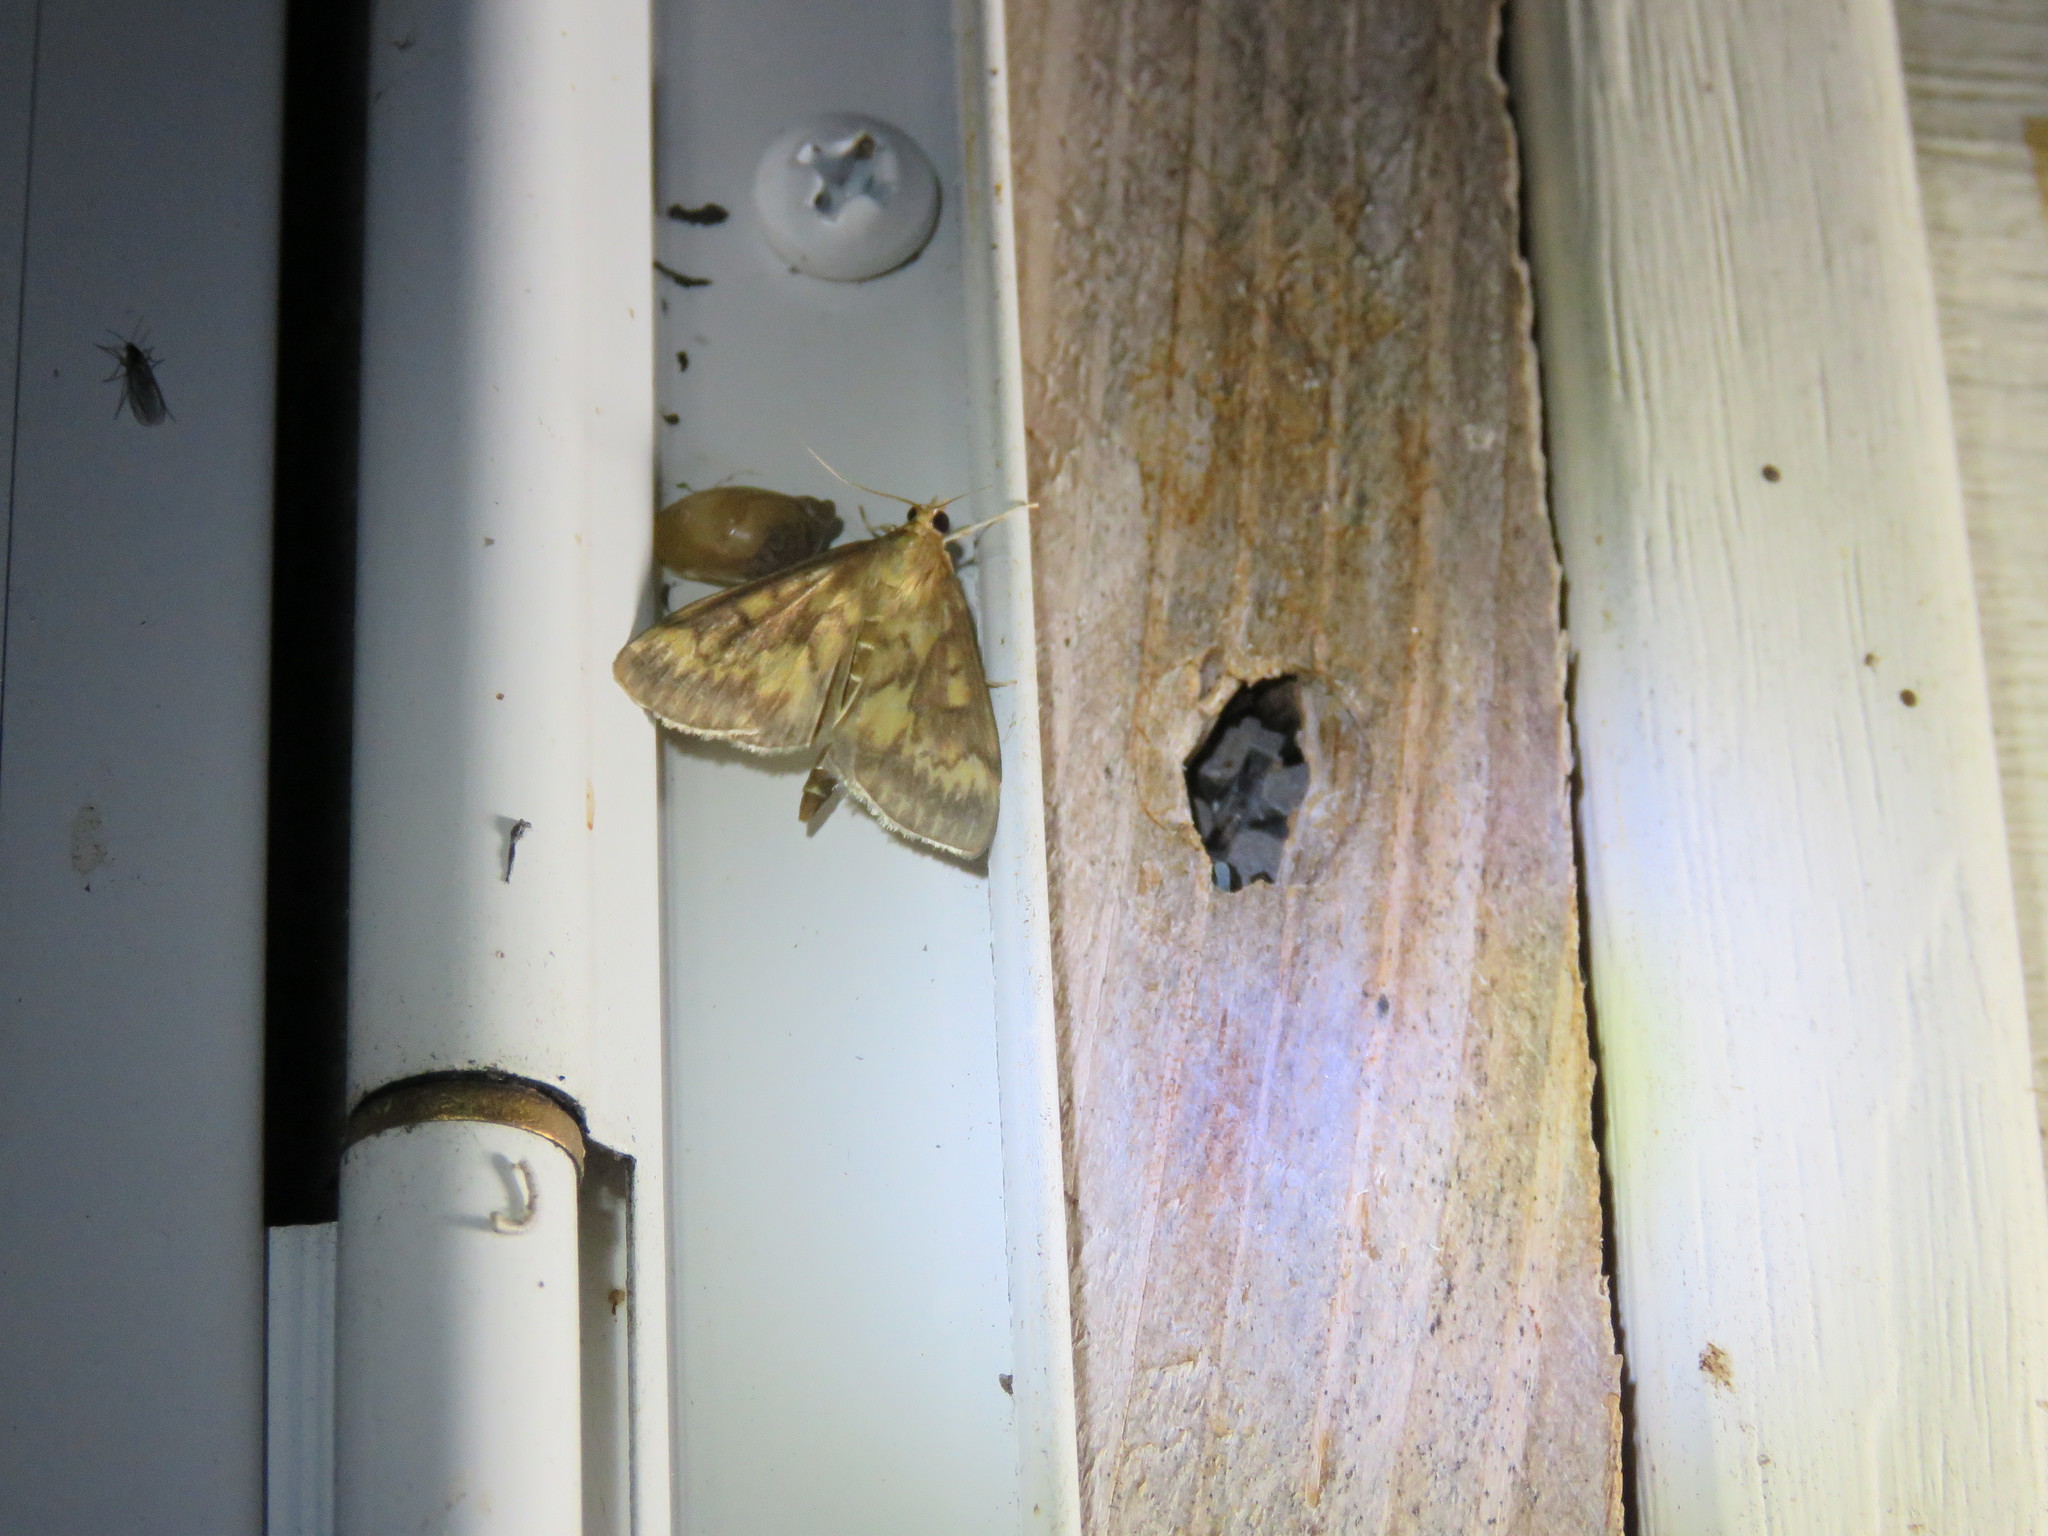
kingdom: Animalia
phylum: Arthropoda
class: Insecta
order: Lepidoptera
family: Crambidae
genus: Ostrinia
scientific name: Ostrinia nubilalis
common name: European corn borer
